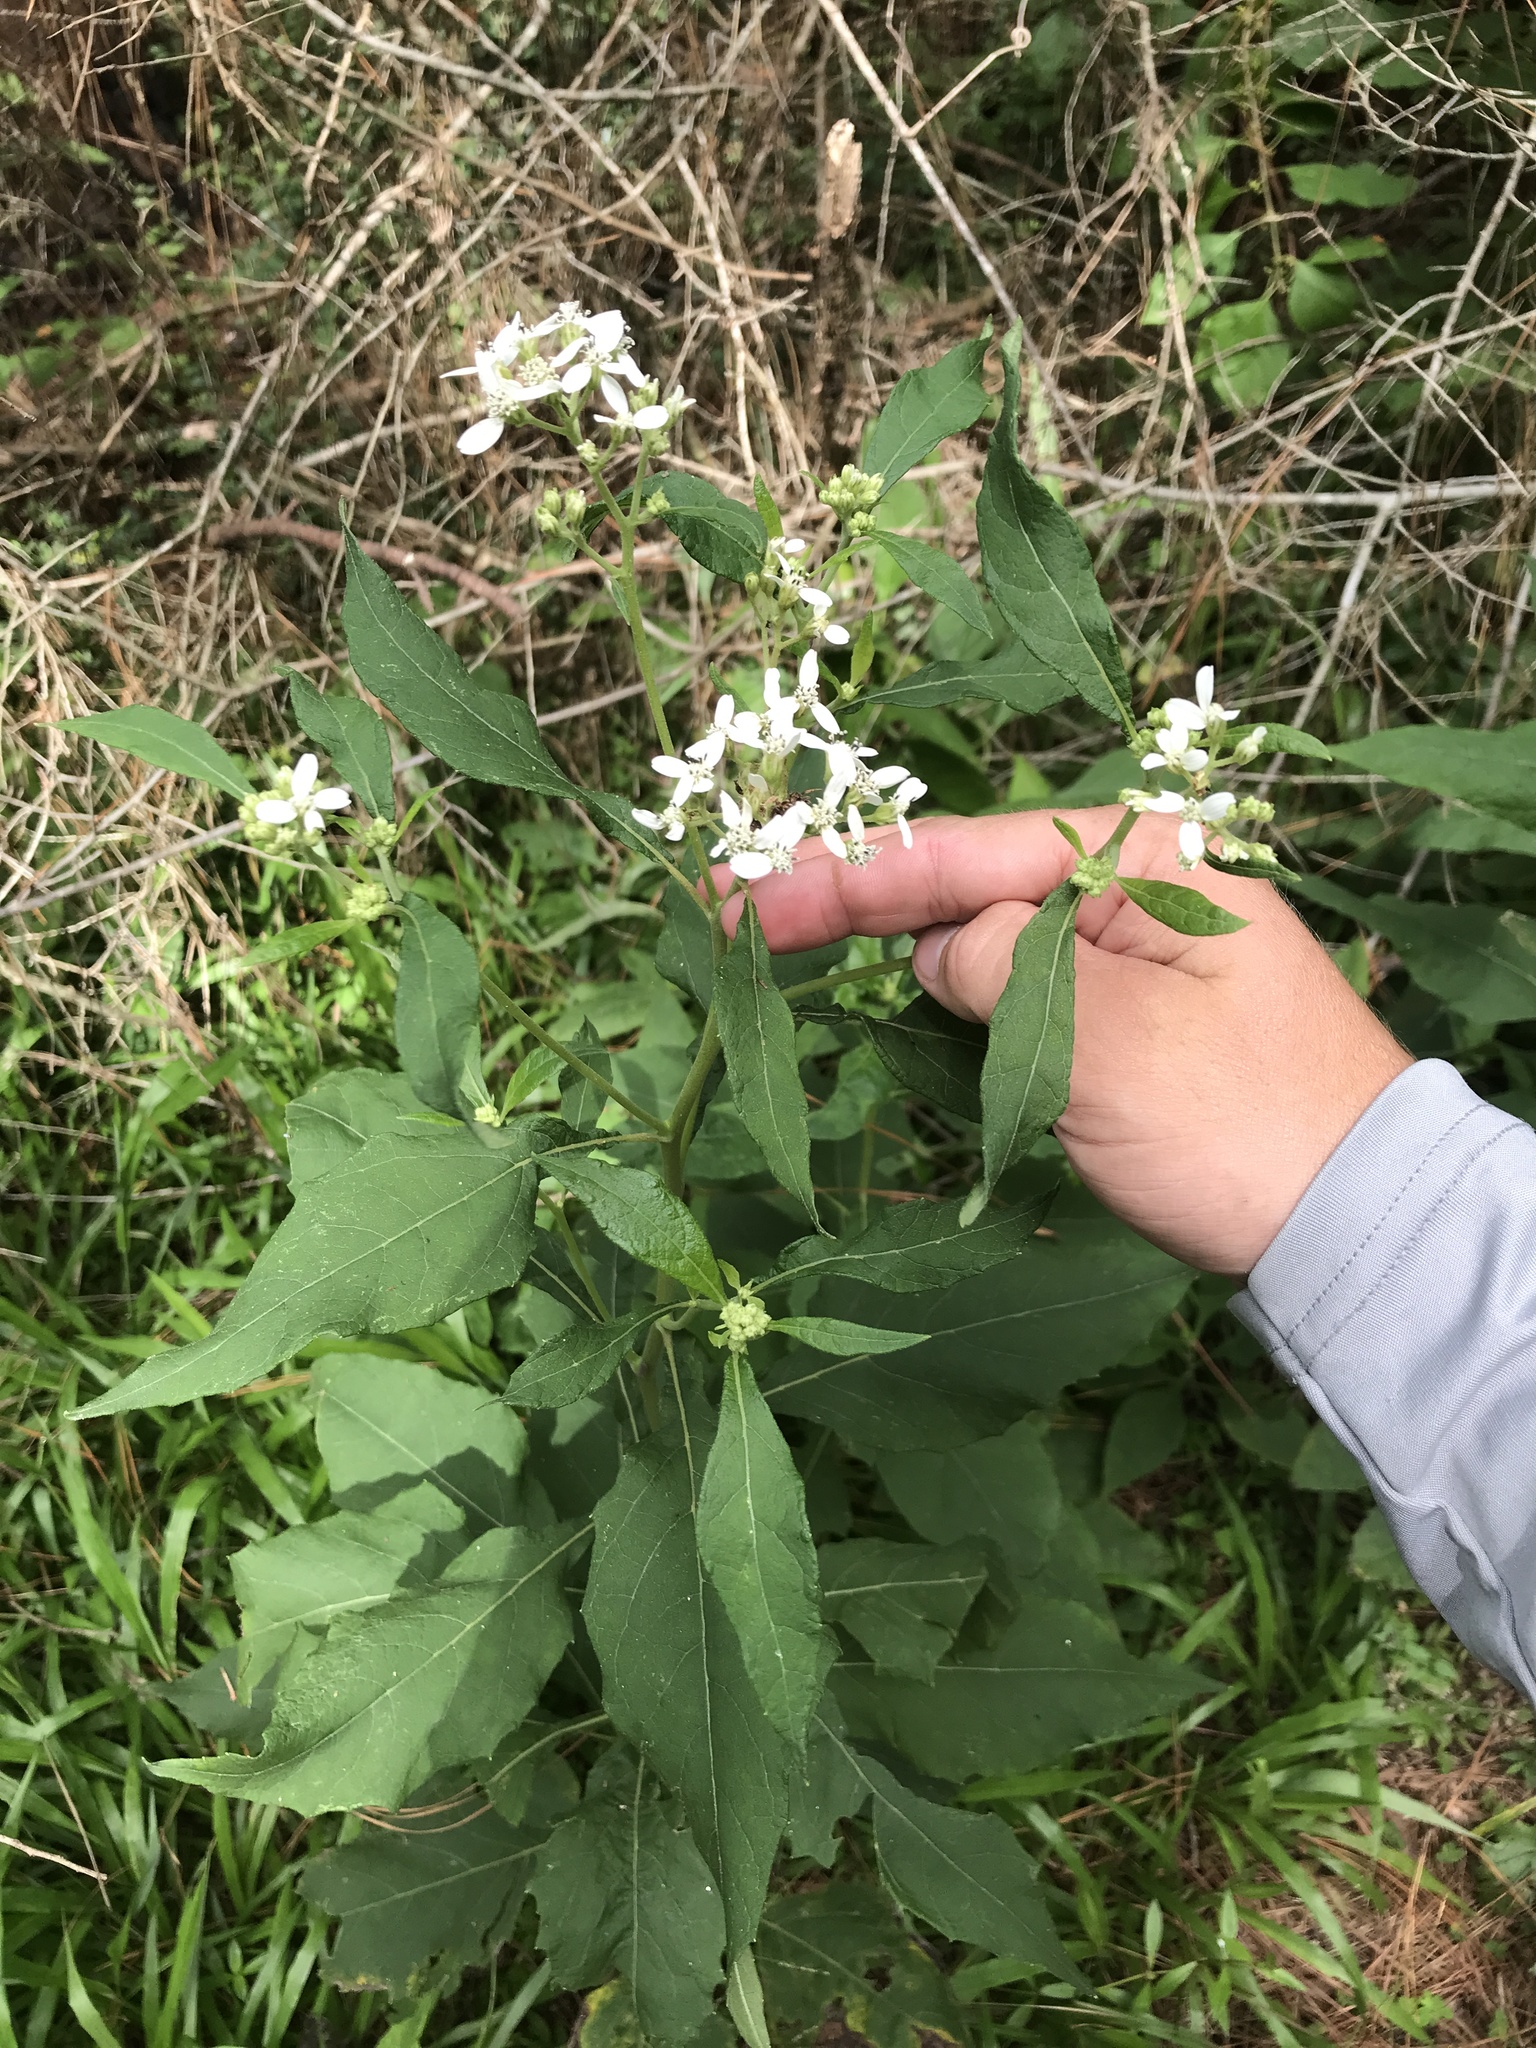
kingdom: Plantae
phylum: Tracheophyta
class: Magnoliopsida
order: Asterales
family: Asteraceae
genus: Verbesina
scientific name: Verbesina virginica
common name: Frostweed
